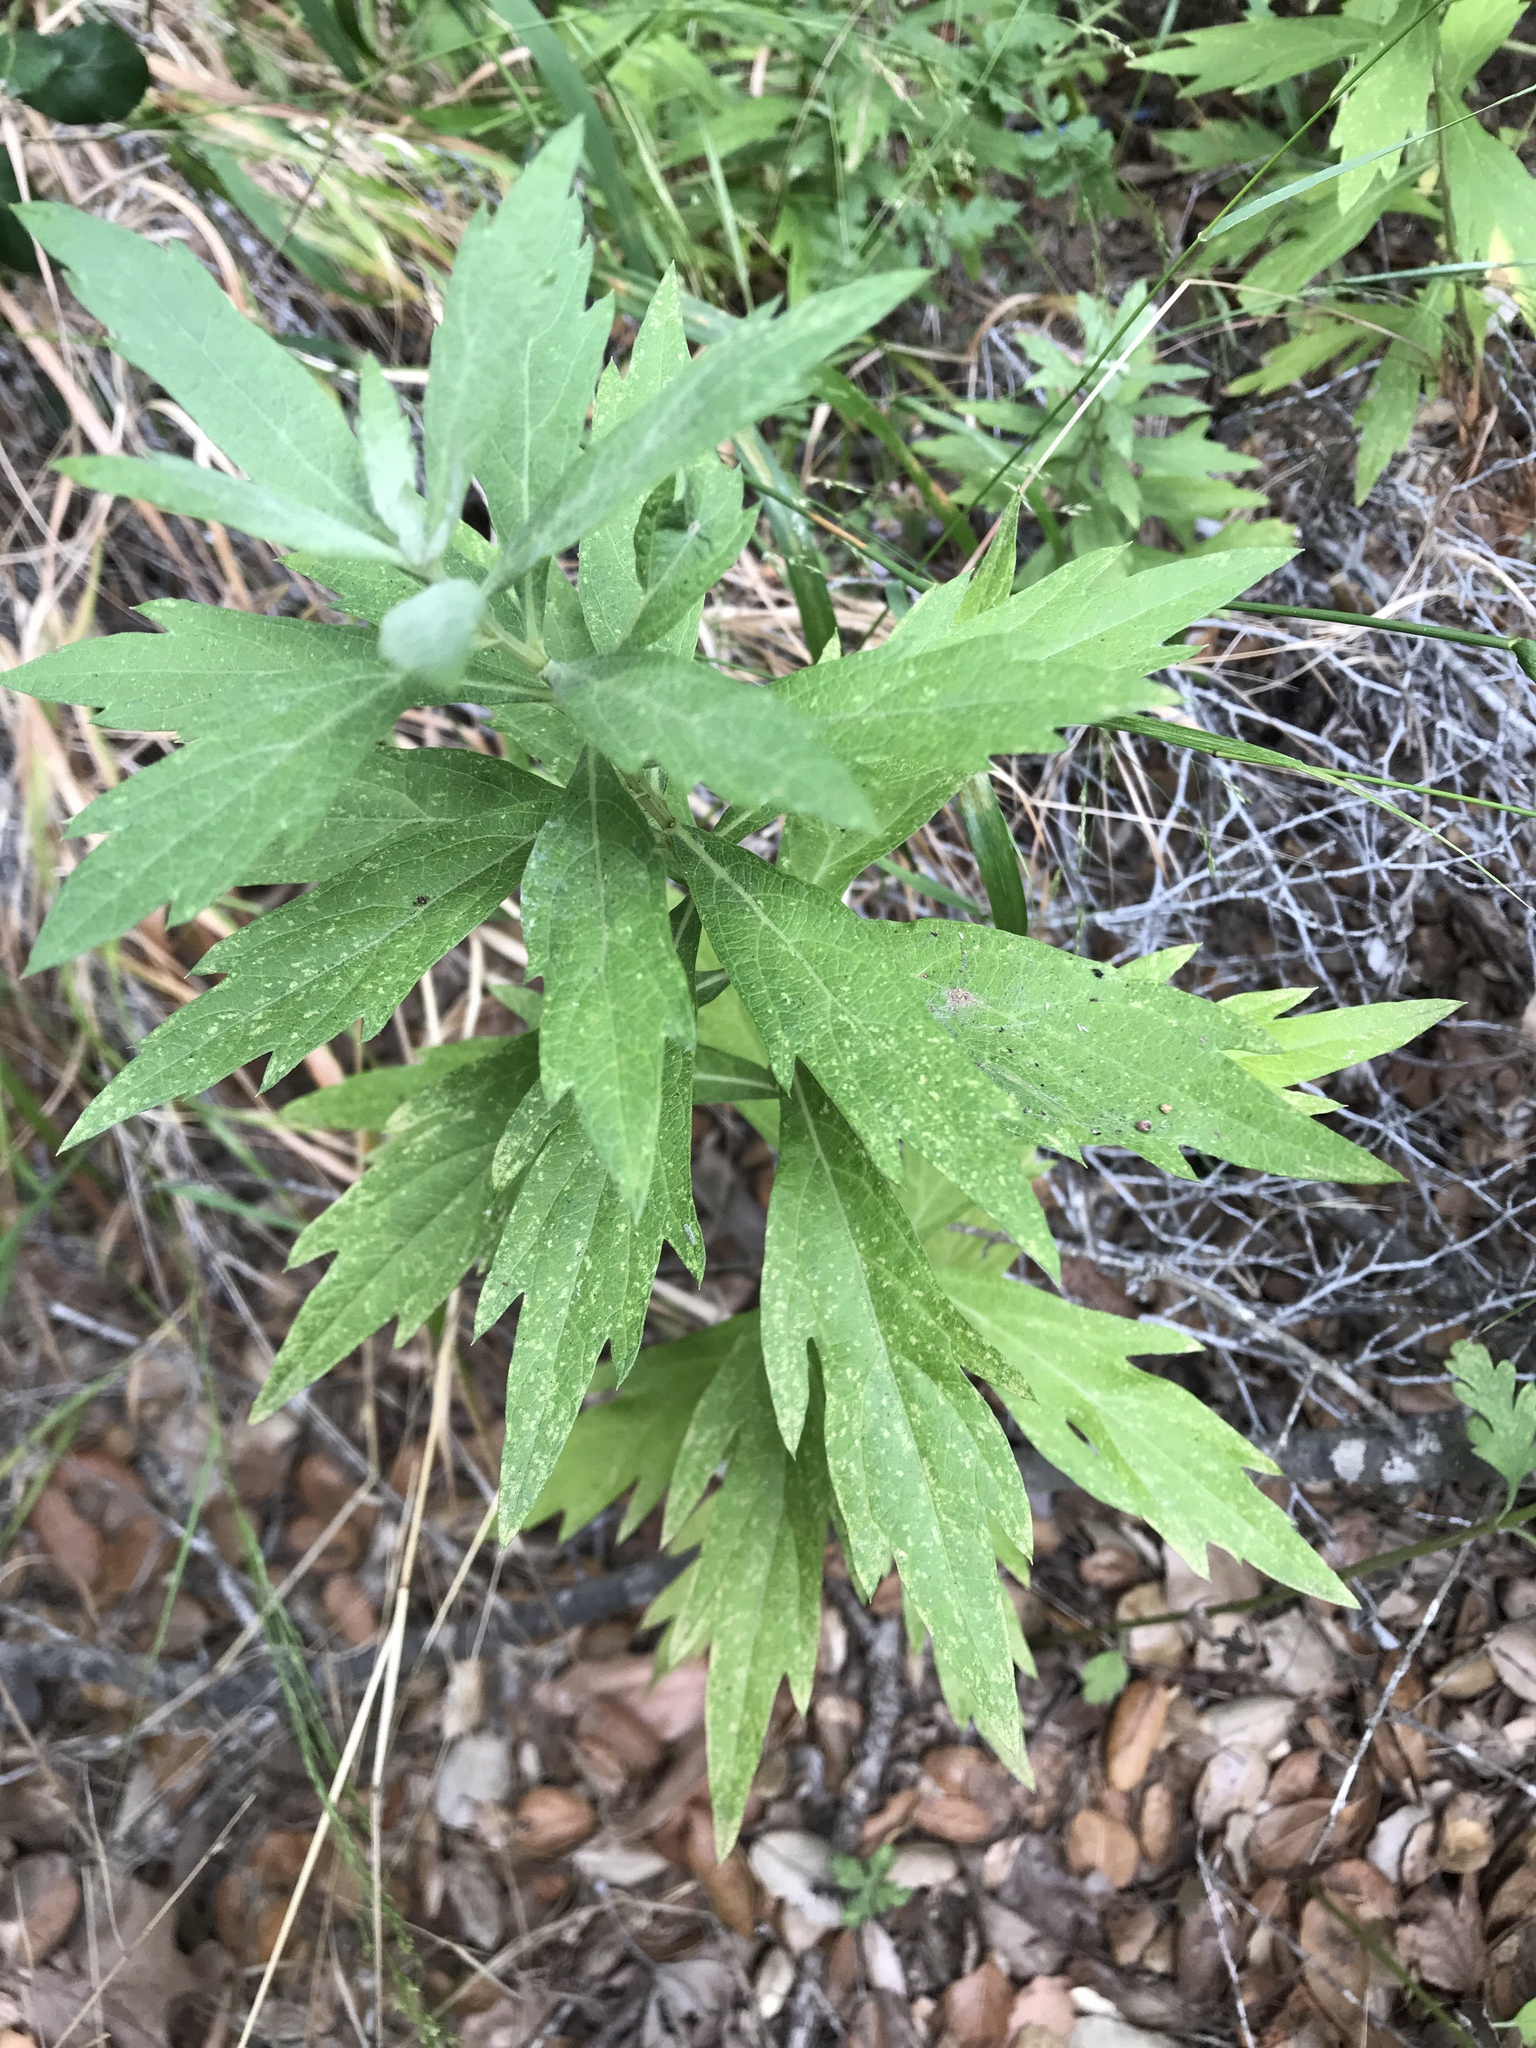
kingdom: Plantae
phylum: Tracheophyta
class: Magnoliopsida
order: Asterales
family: Asteraceae
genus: Artemisia
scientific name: Artemisia douglasiana
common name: Northwest mugwort
